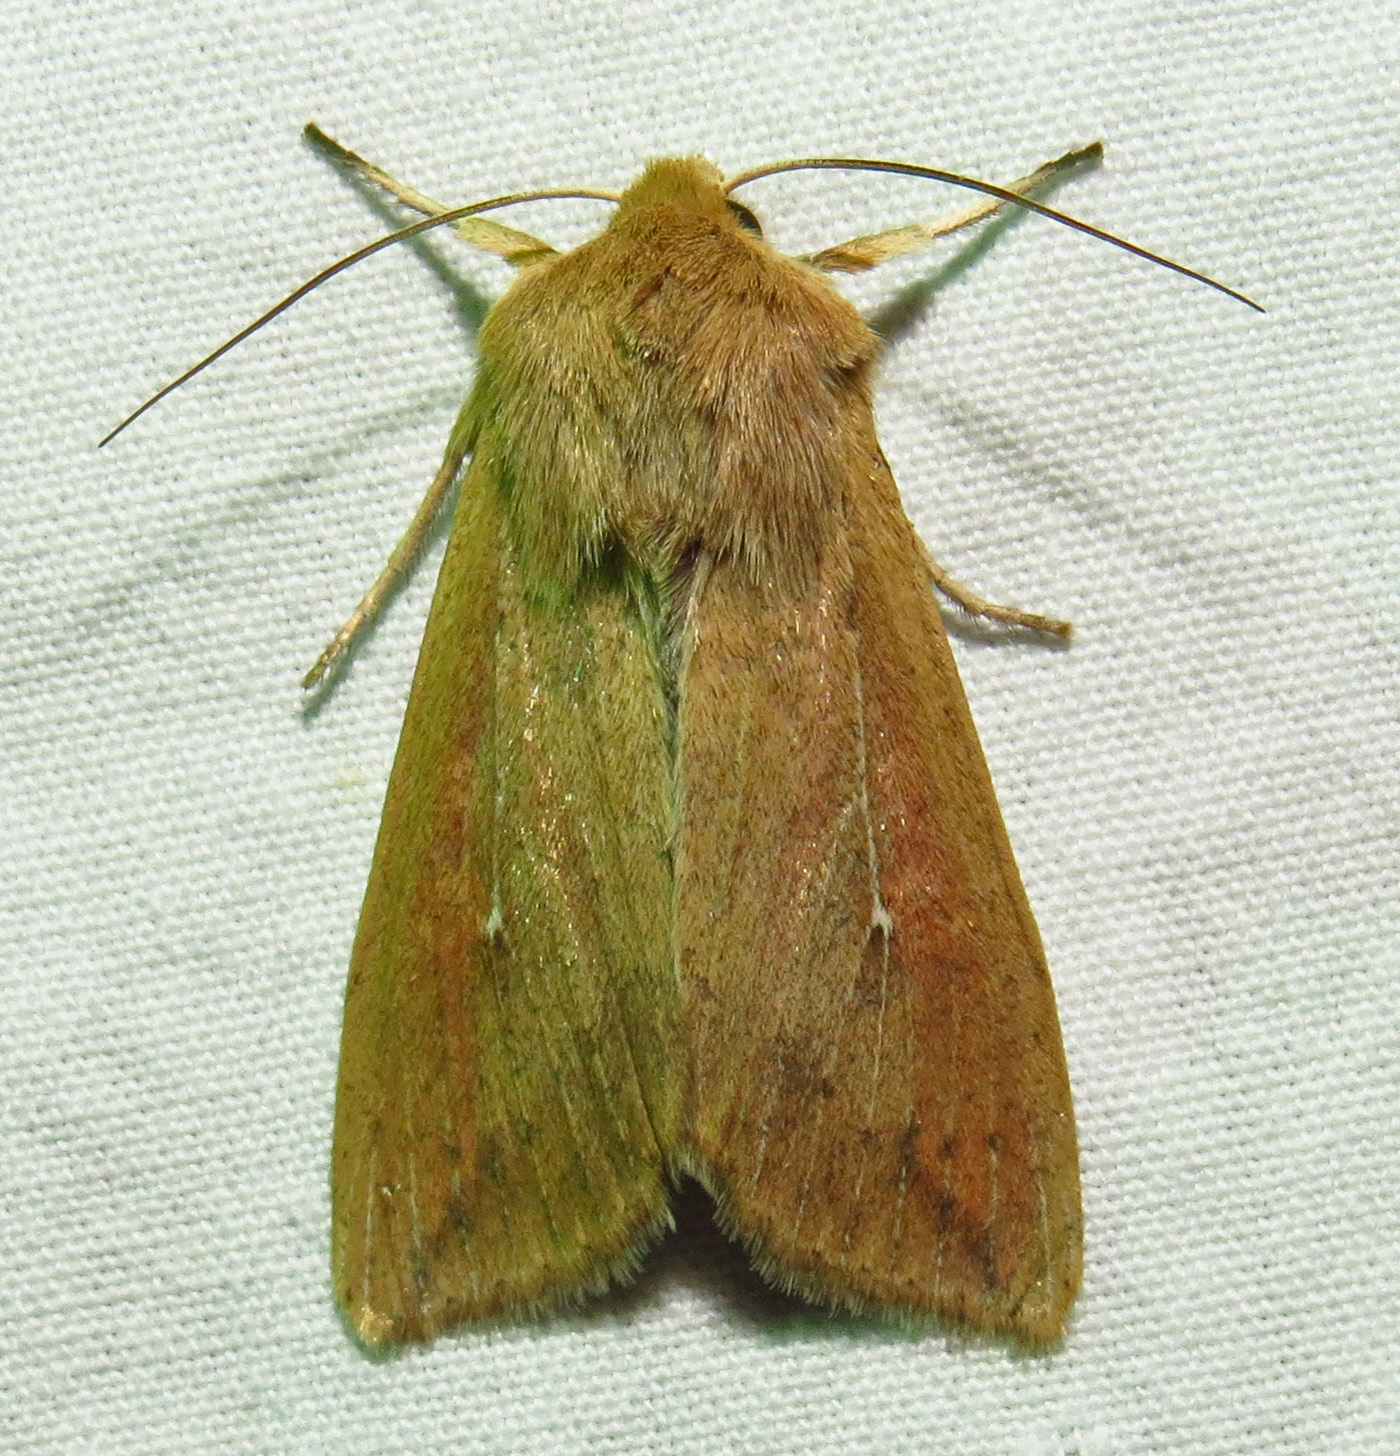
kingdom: Animalia
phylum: Arthropoda
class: Insecta
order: Lepidoptera
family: Noctuidae
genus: Mythimna
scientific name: Mythimna unipuncta
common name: White-speck
